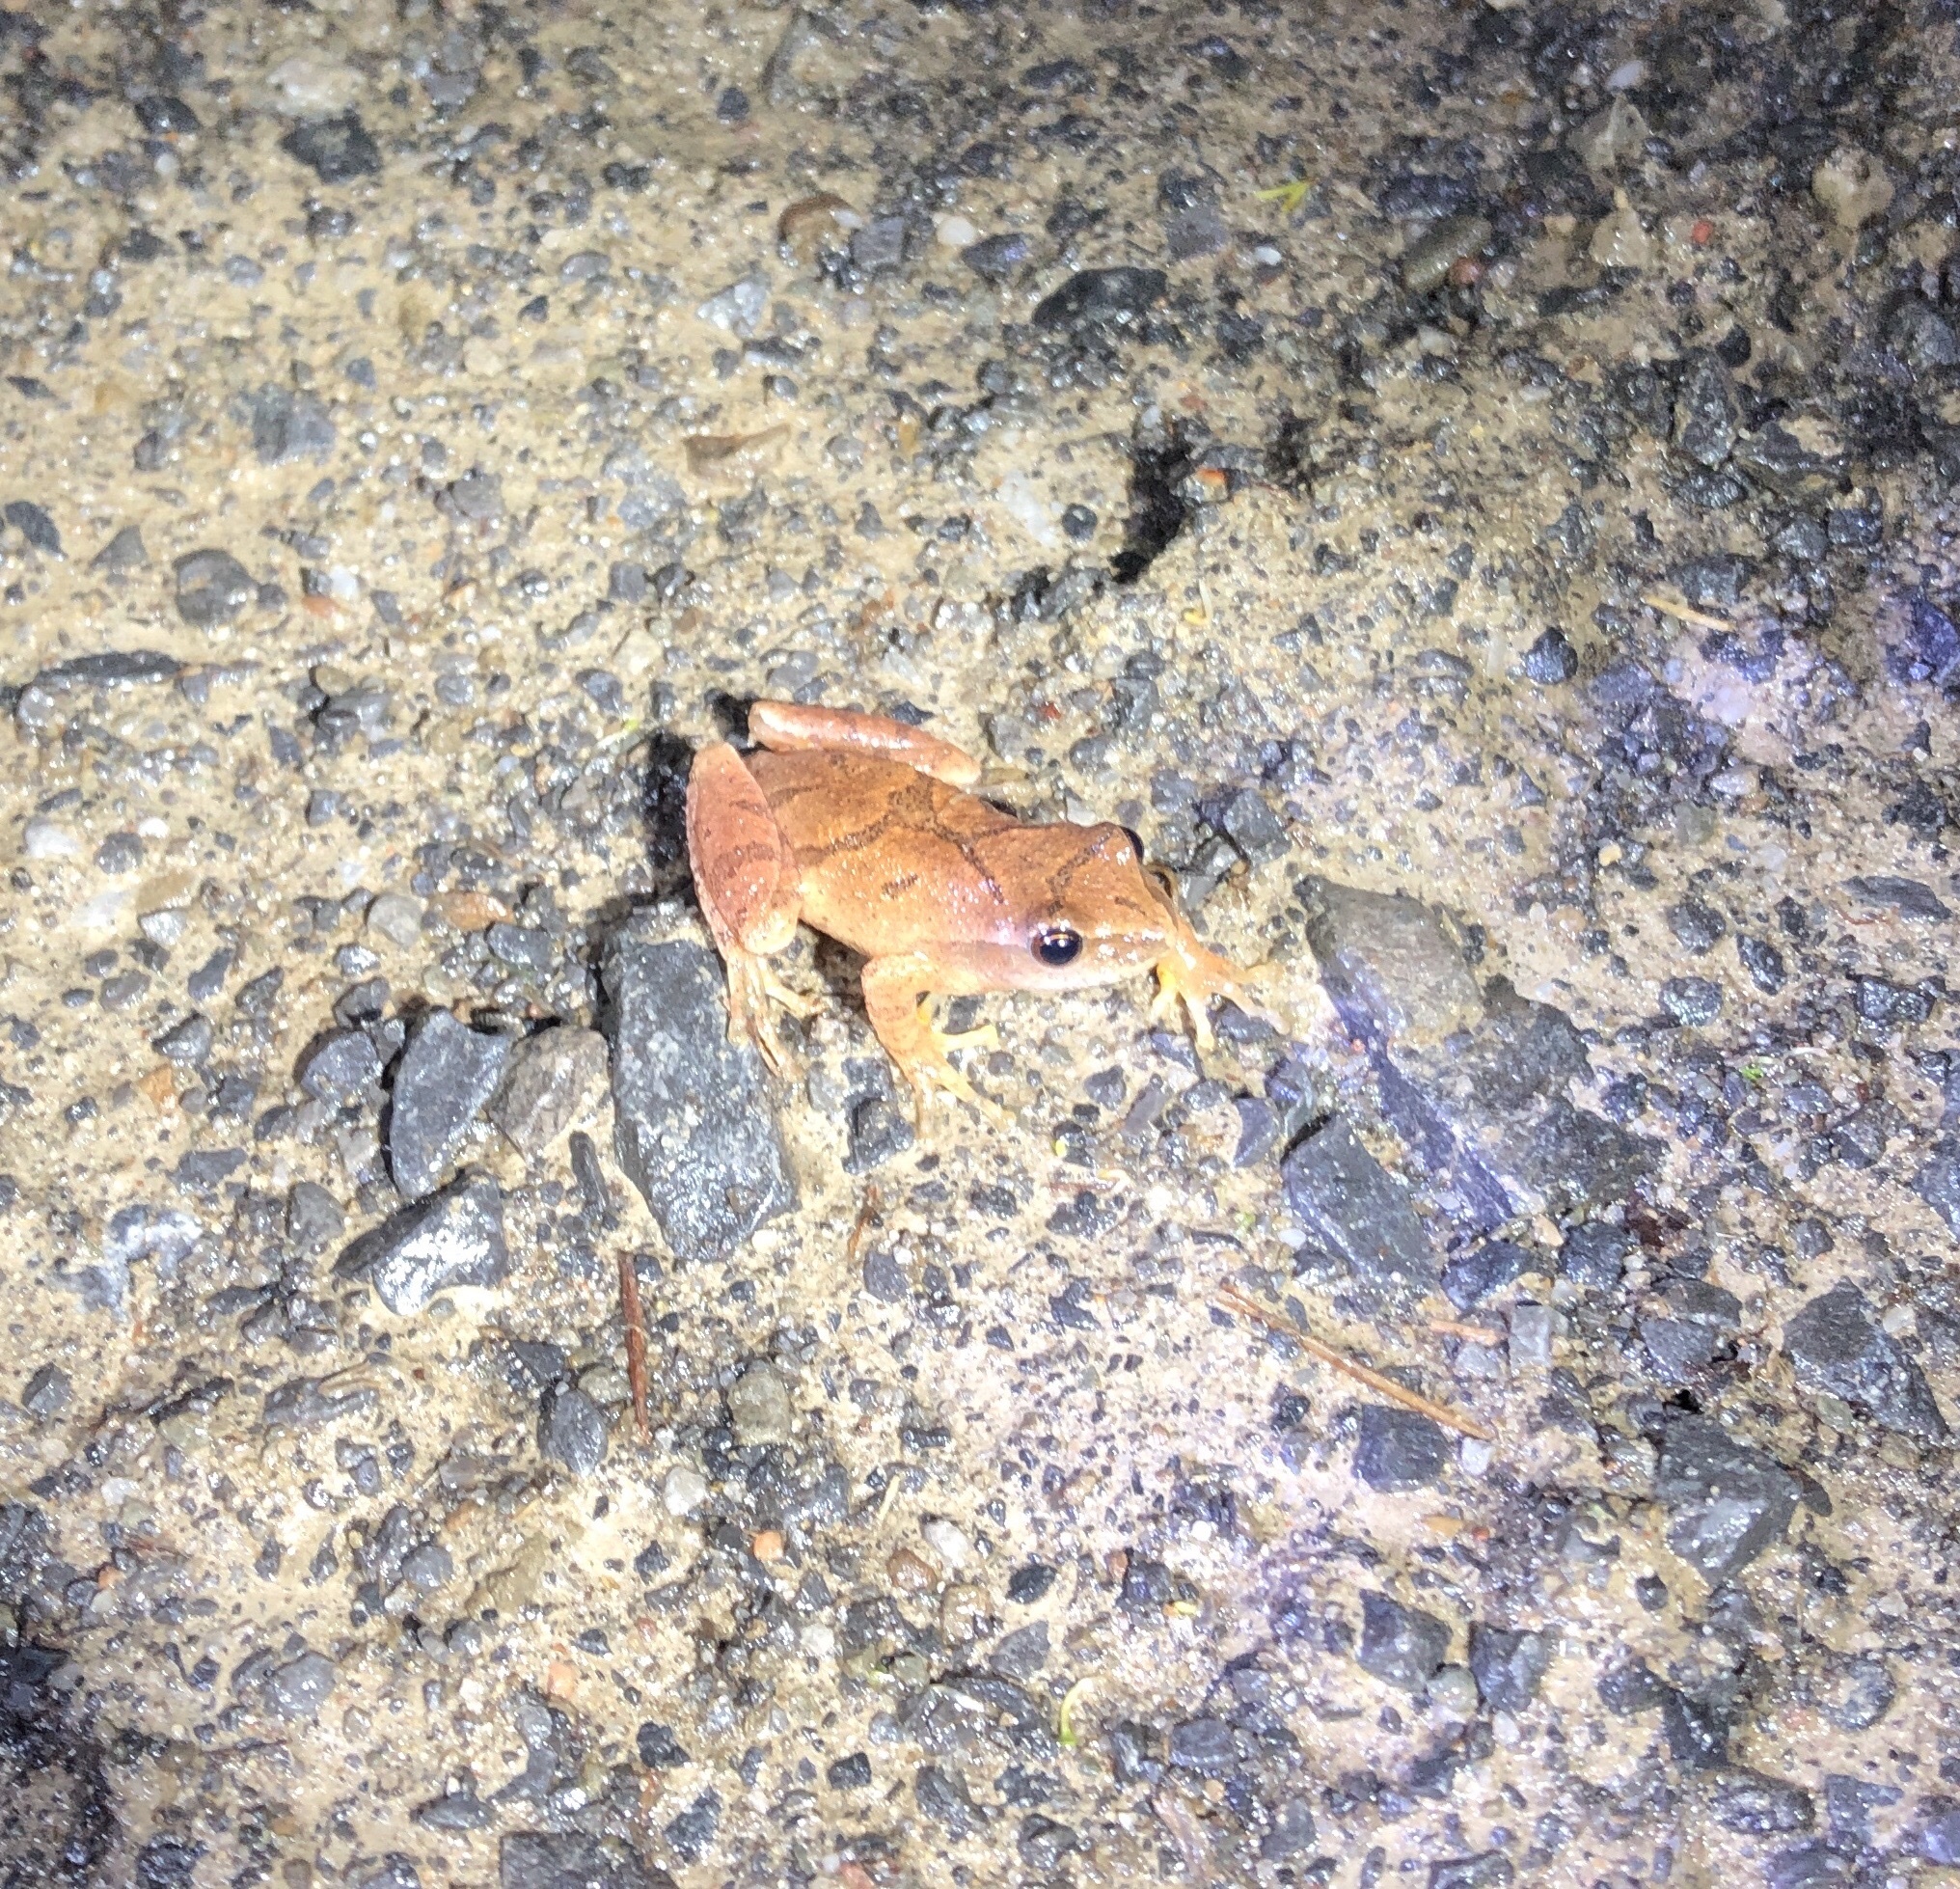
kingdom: Animalia
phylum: Chordata
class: Amphibia
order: Anura
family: Hylidae
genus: Pseudacris
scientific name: Pseudacris crucifer
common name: Spring peeper
